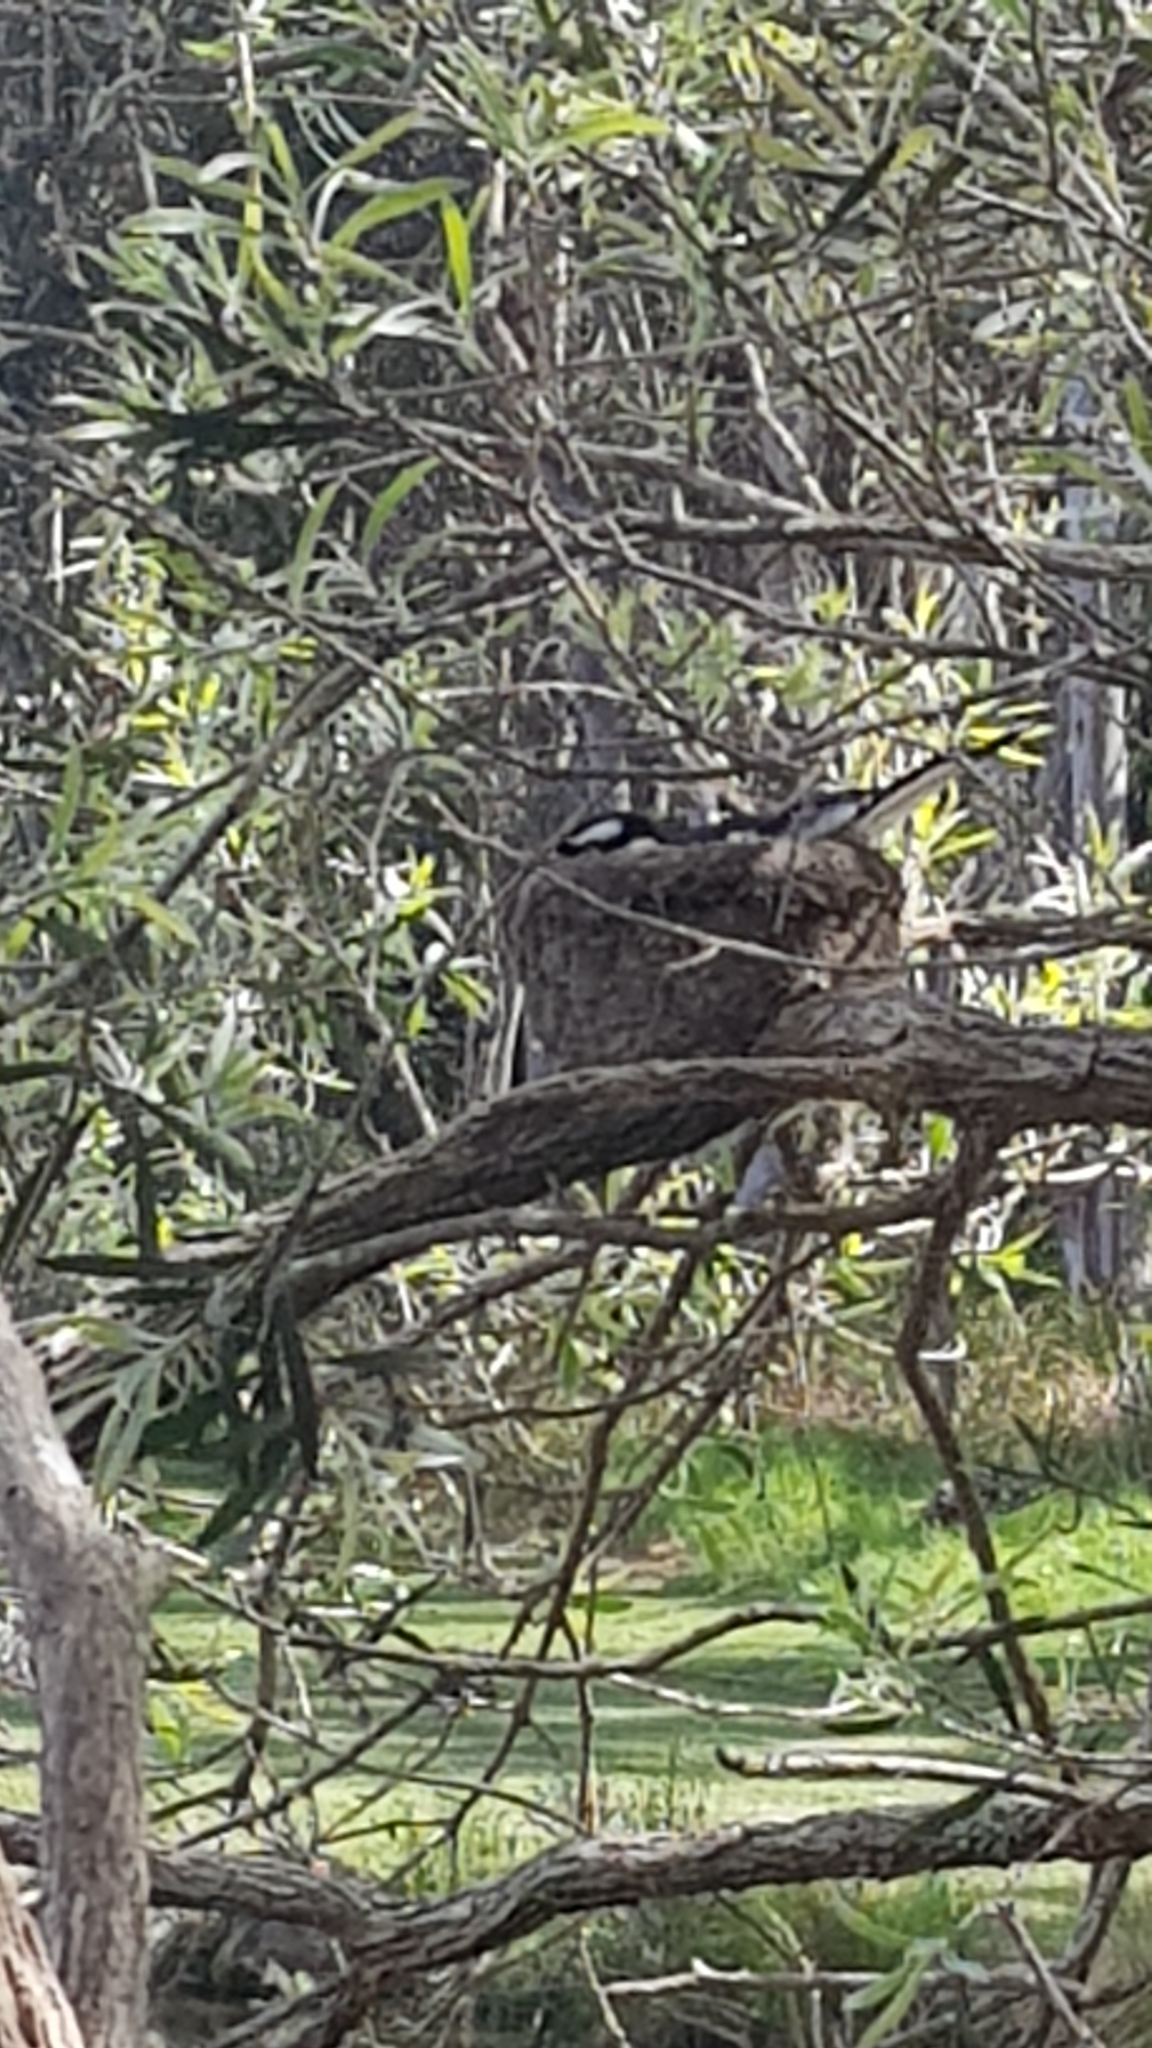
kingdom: Animalia
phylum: Chordata
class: Aves
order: Passeriformes
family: Monarchidae
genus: Grallina
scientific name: Grallina cyanoleuca
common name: Magpie-lark
